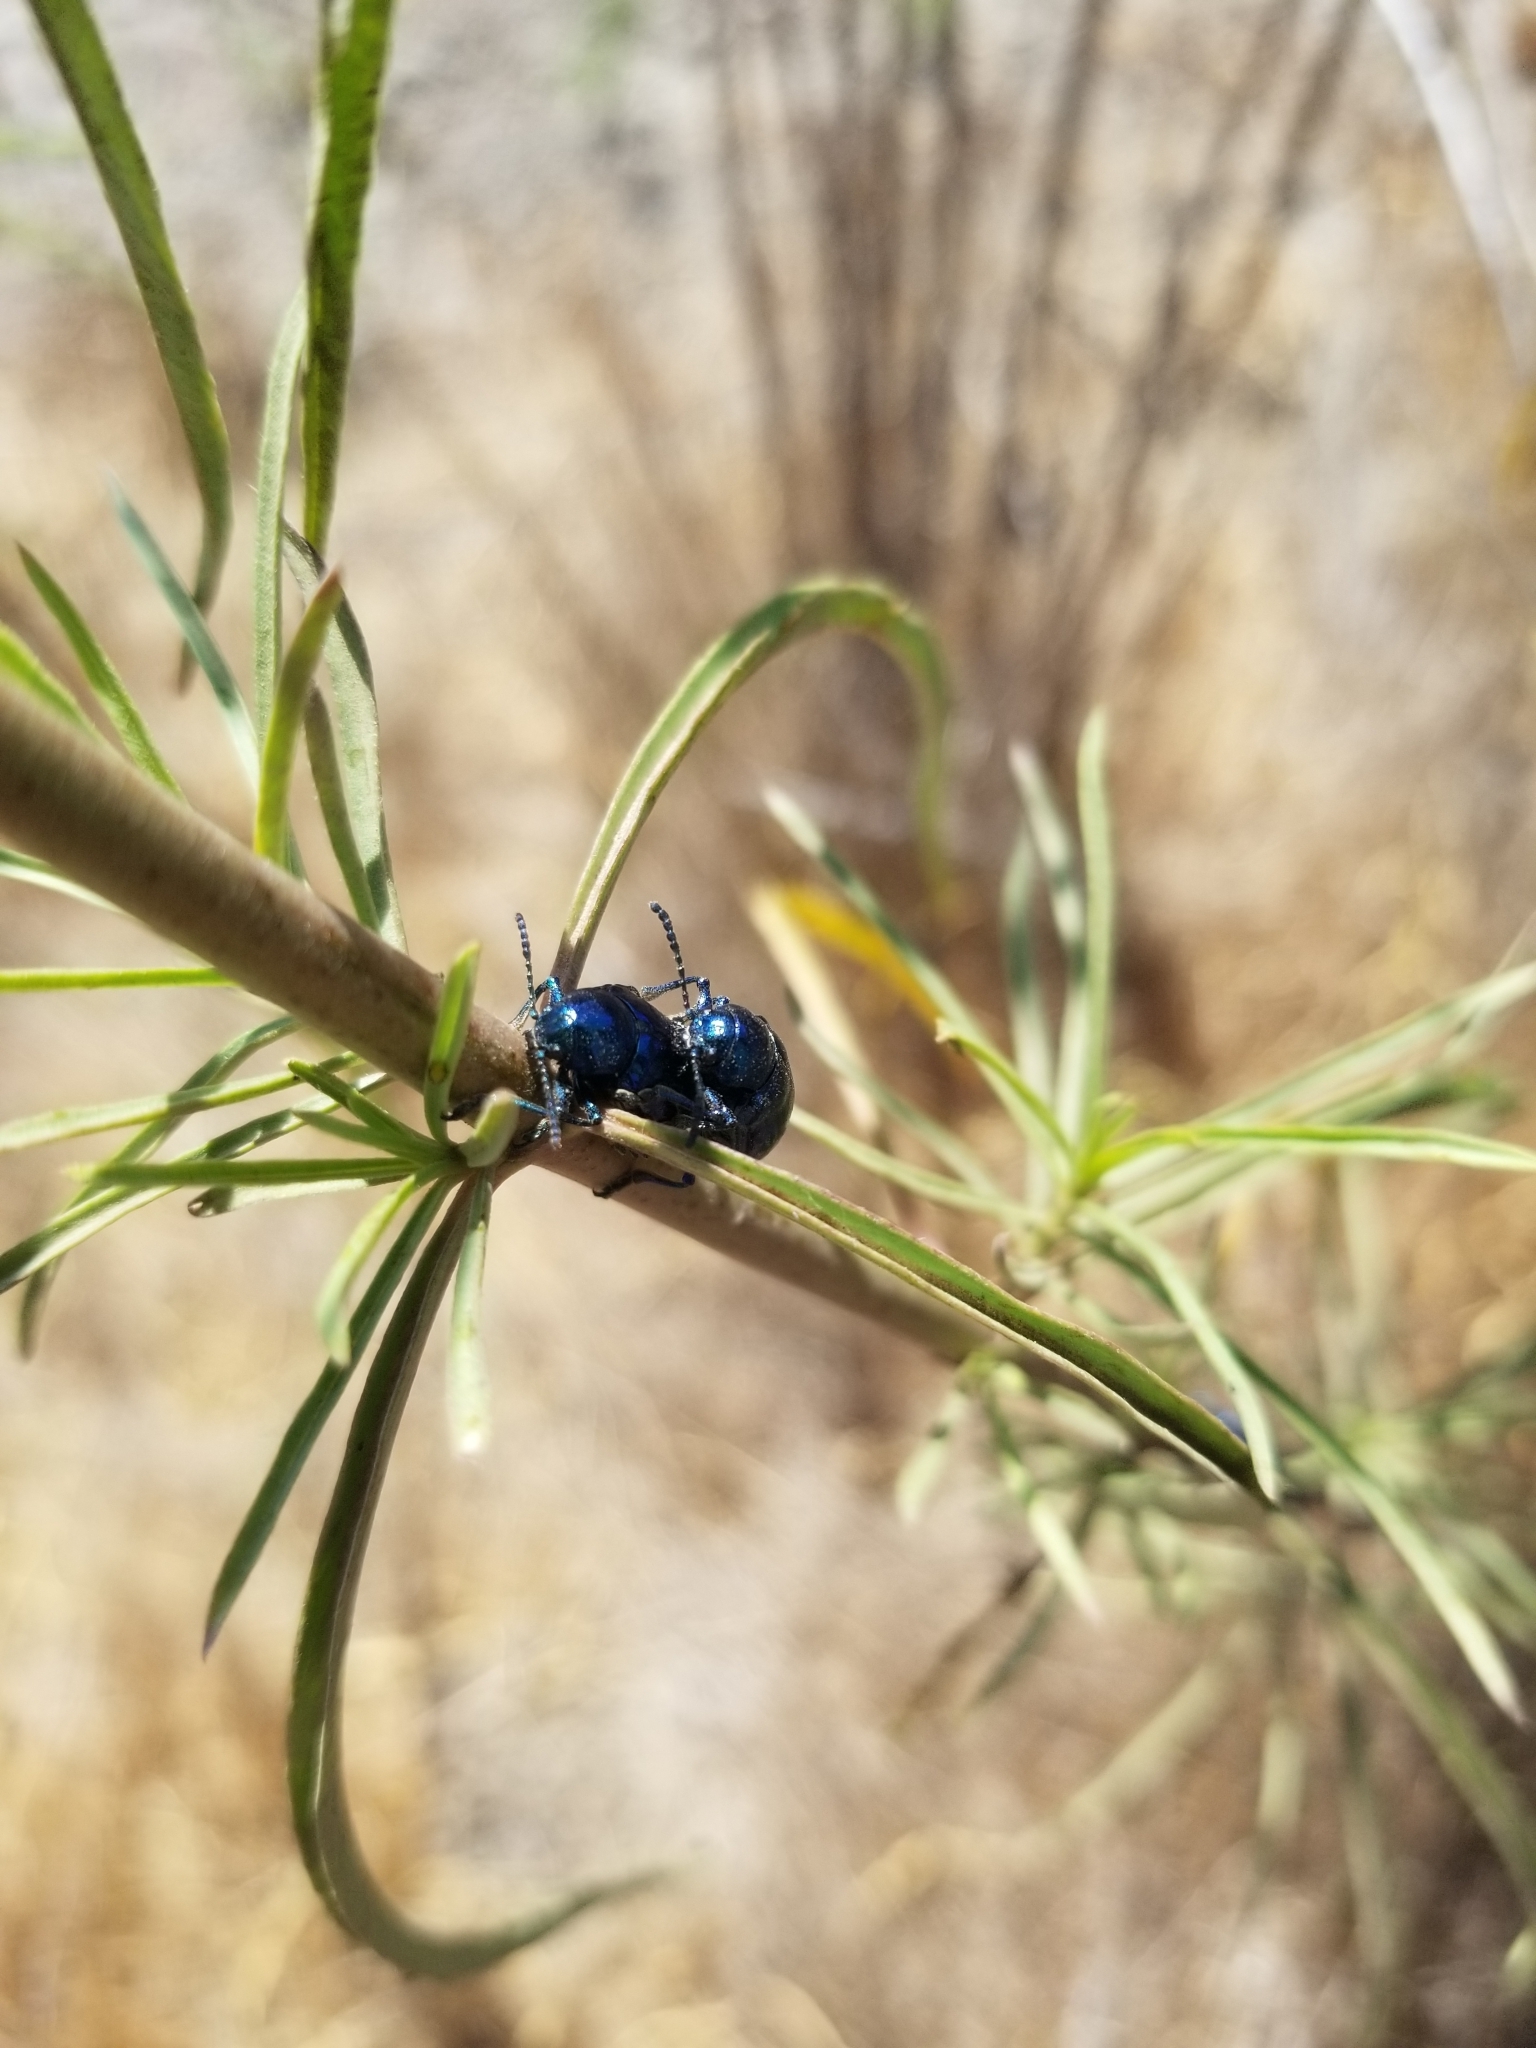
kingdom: Animalia
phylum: Arthropoda
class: Insecta
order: Coleoptera
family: Chrysomelidae
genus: Chrysochus
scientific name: Chrysochus cobaltinus
